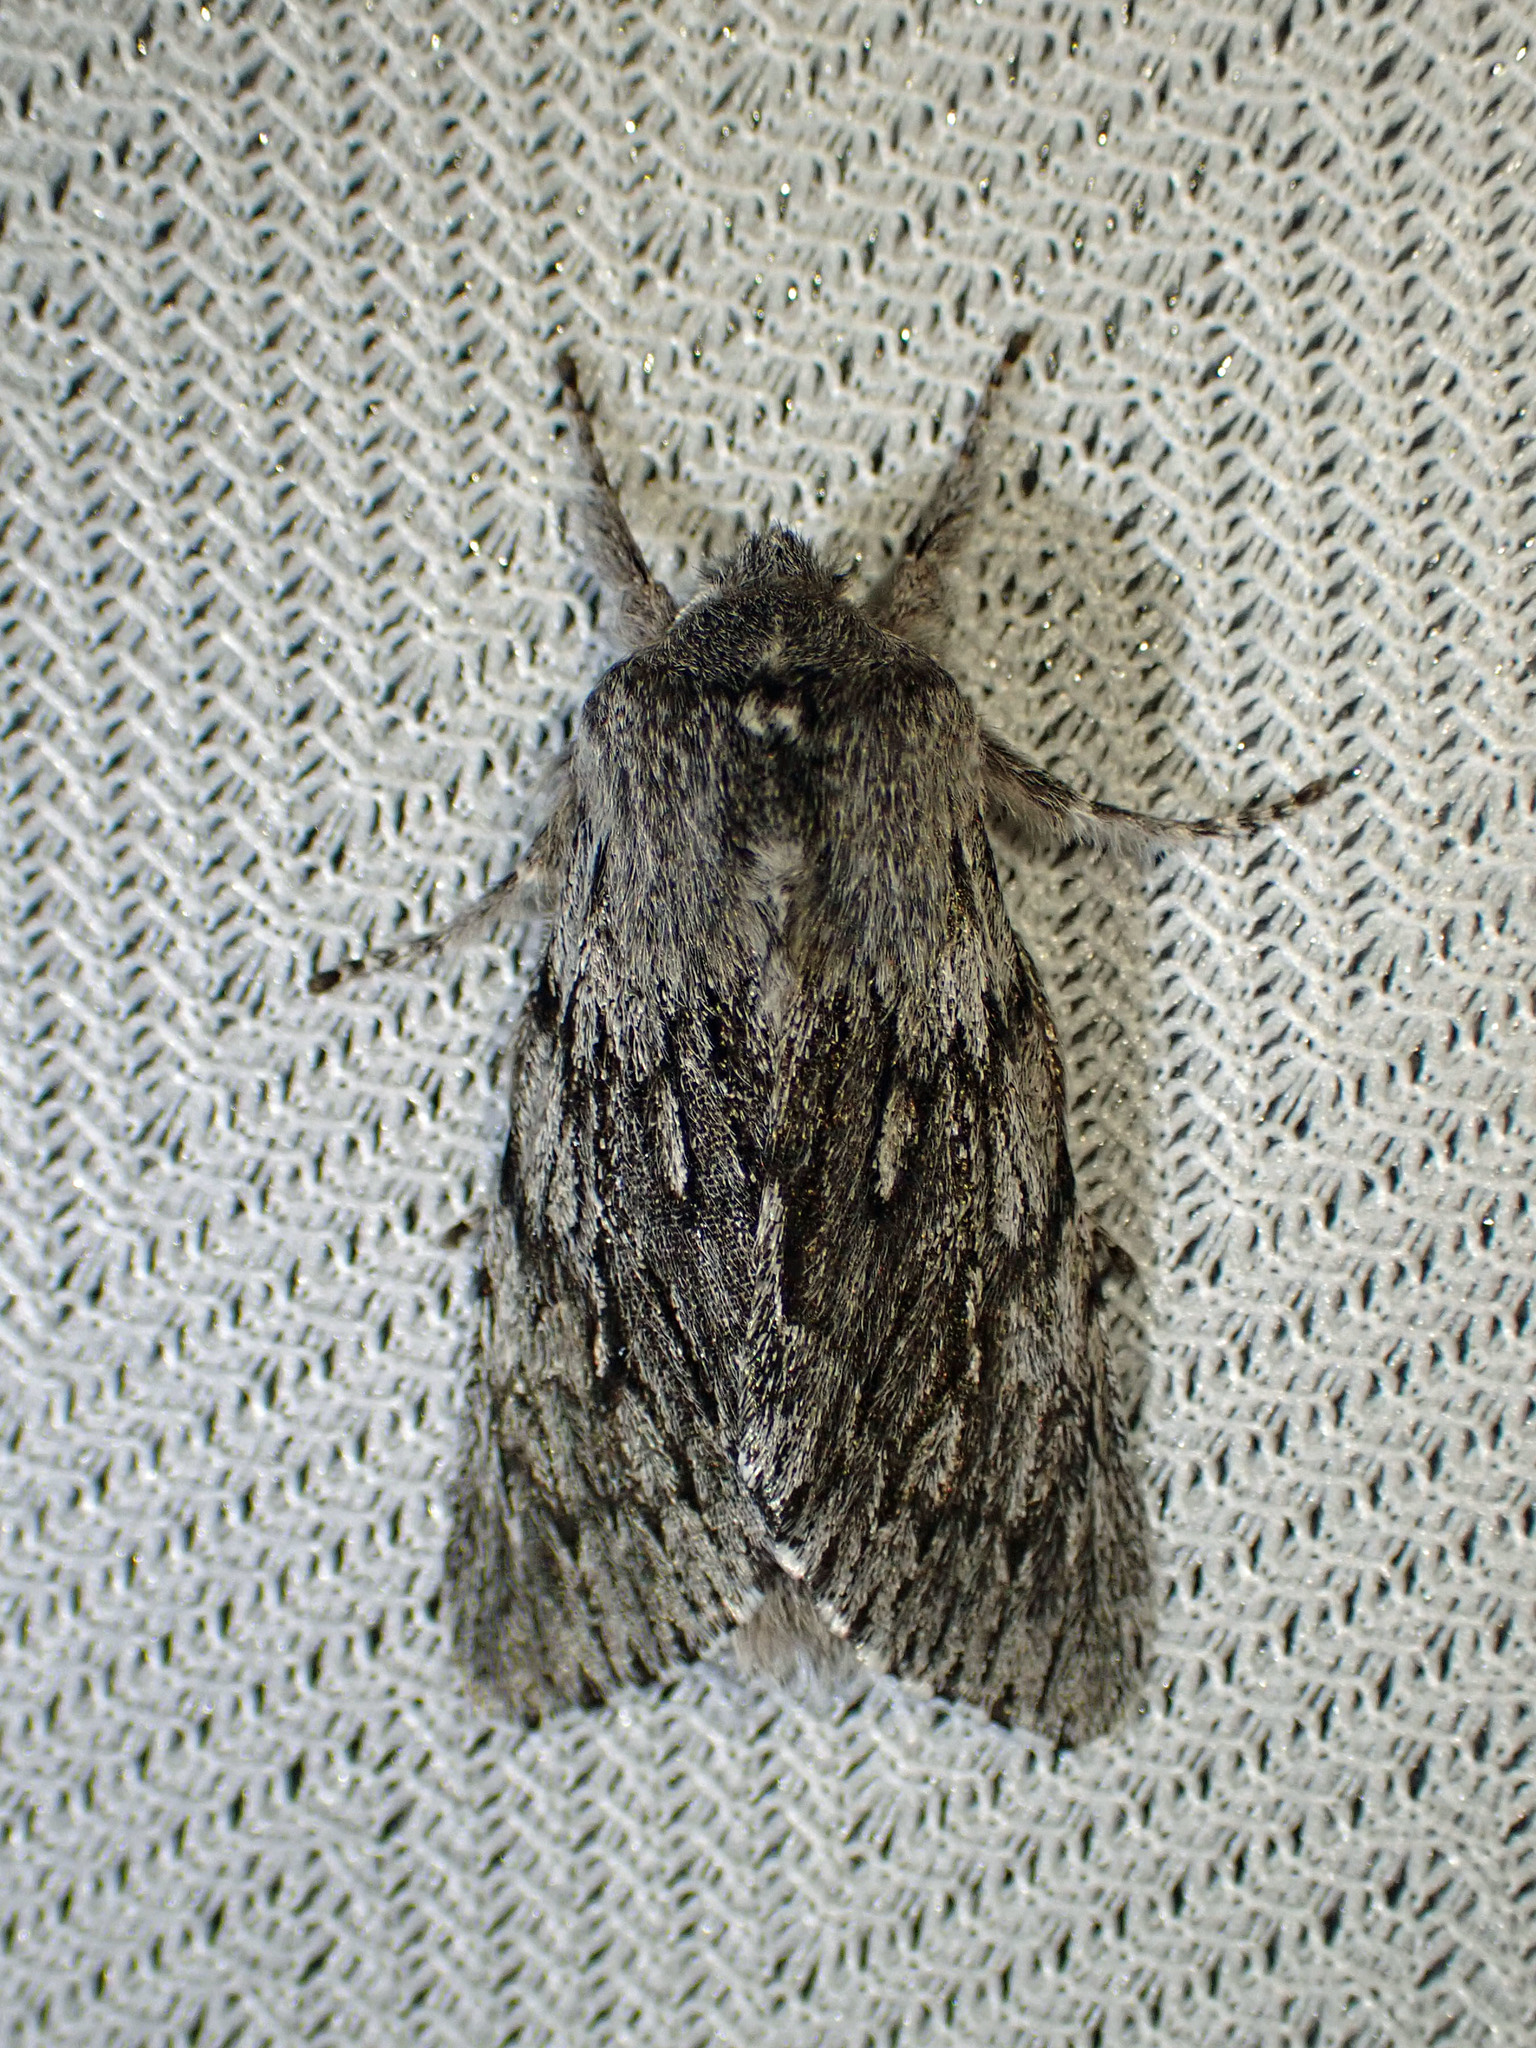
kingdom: Animalia
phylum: Arthropoda
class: Insecta
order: Lepidoptera
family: Noctuidae
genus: Brachionycha
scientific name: Brachionycha borealis
